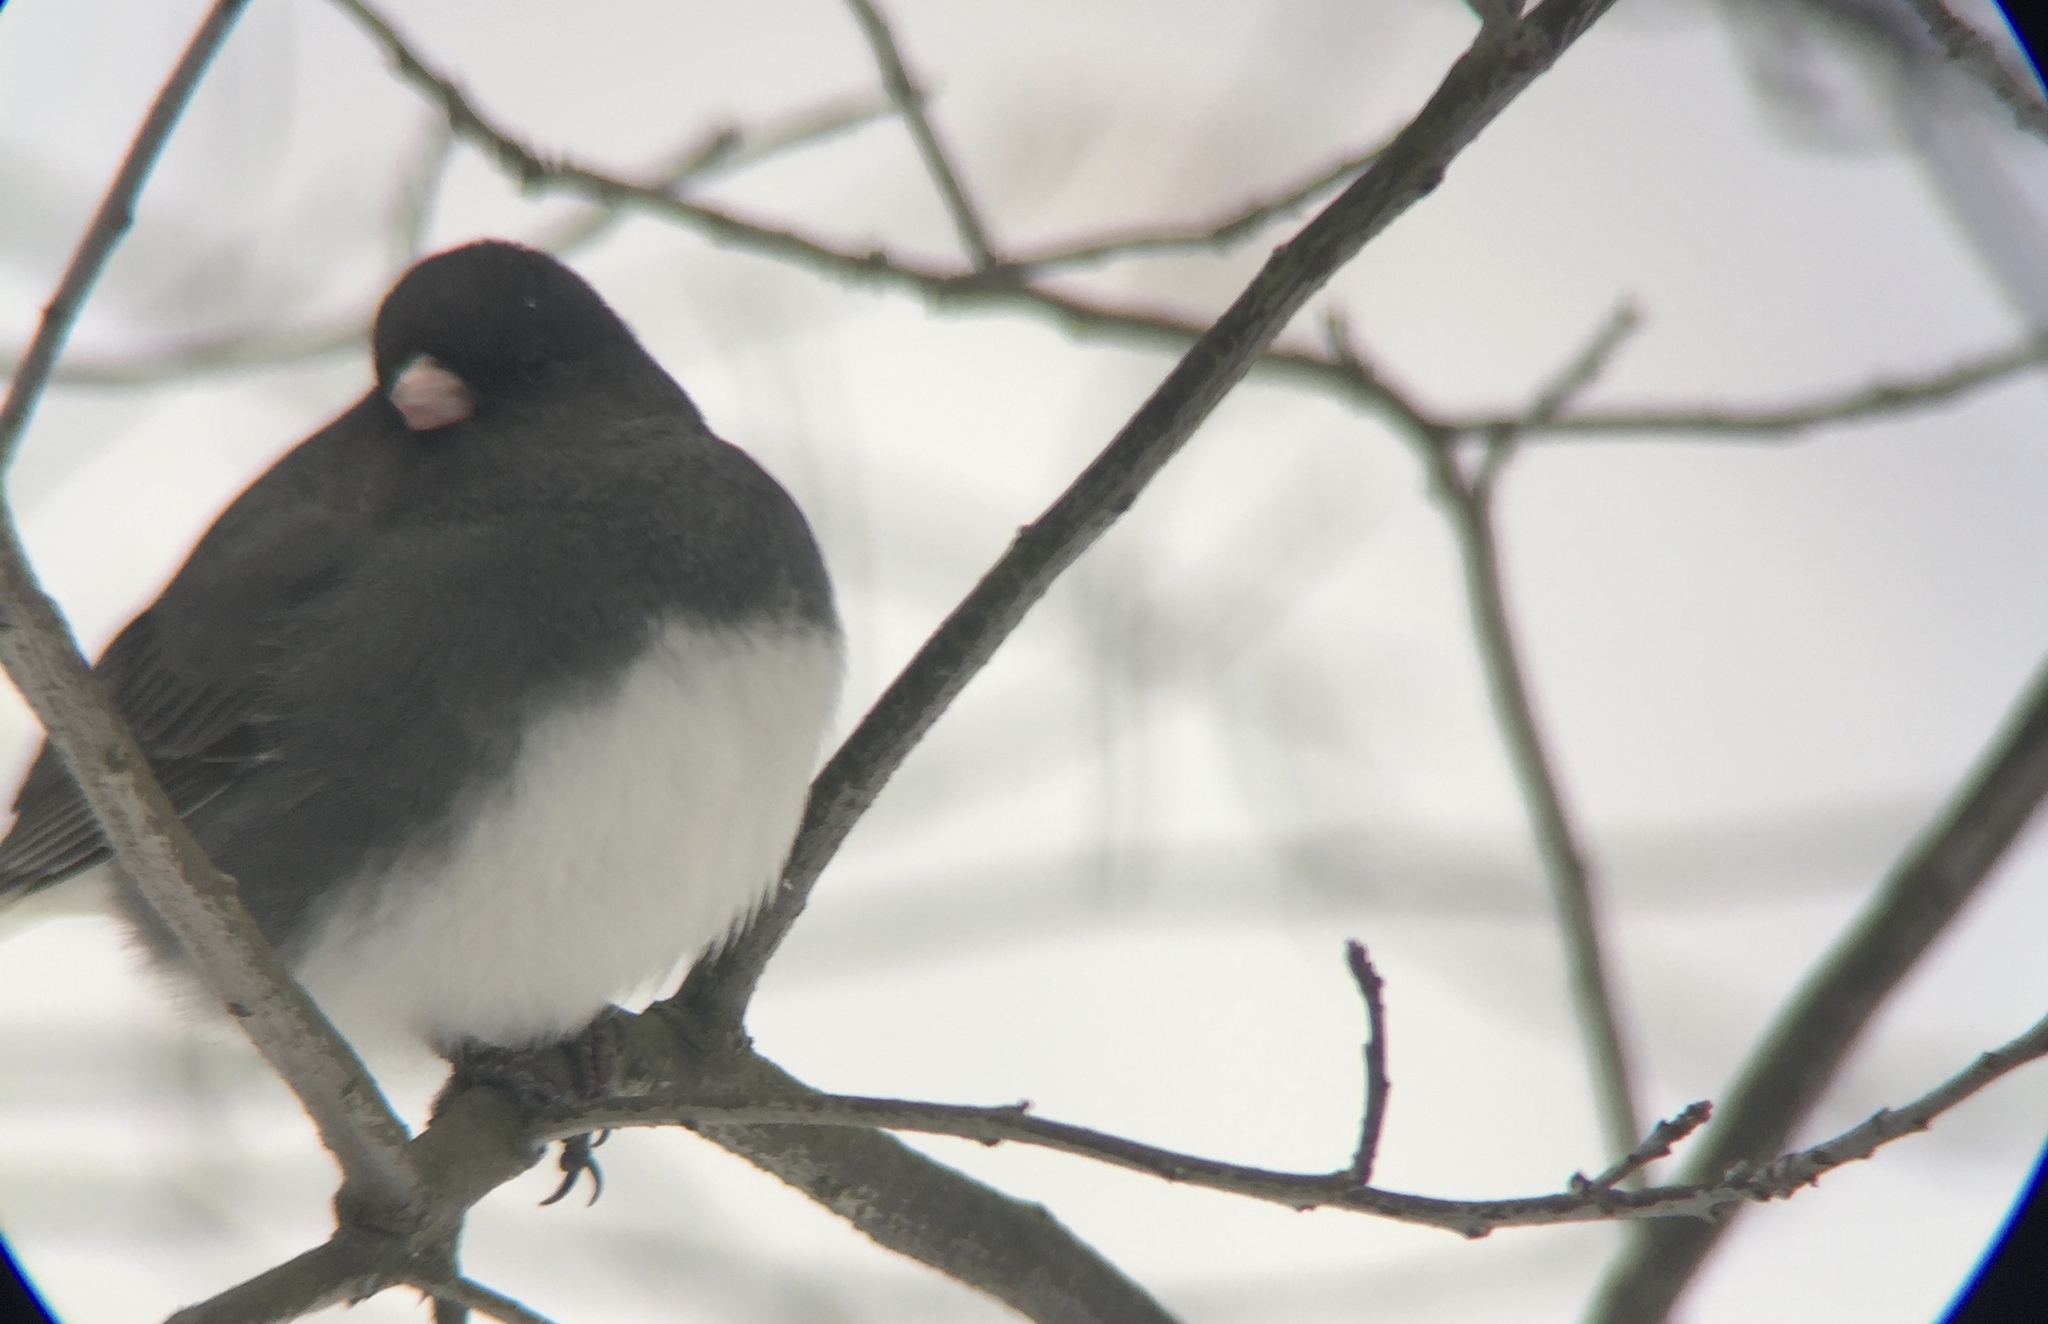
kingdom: Animalia
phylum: Chordata
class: Aves
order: Passeriformes
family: Passerellidae
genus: Junco
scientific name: Junco hyemalis
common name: Dark-eyed junco
